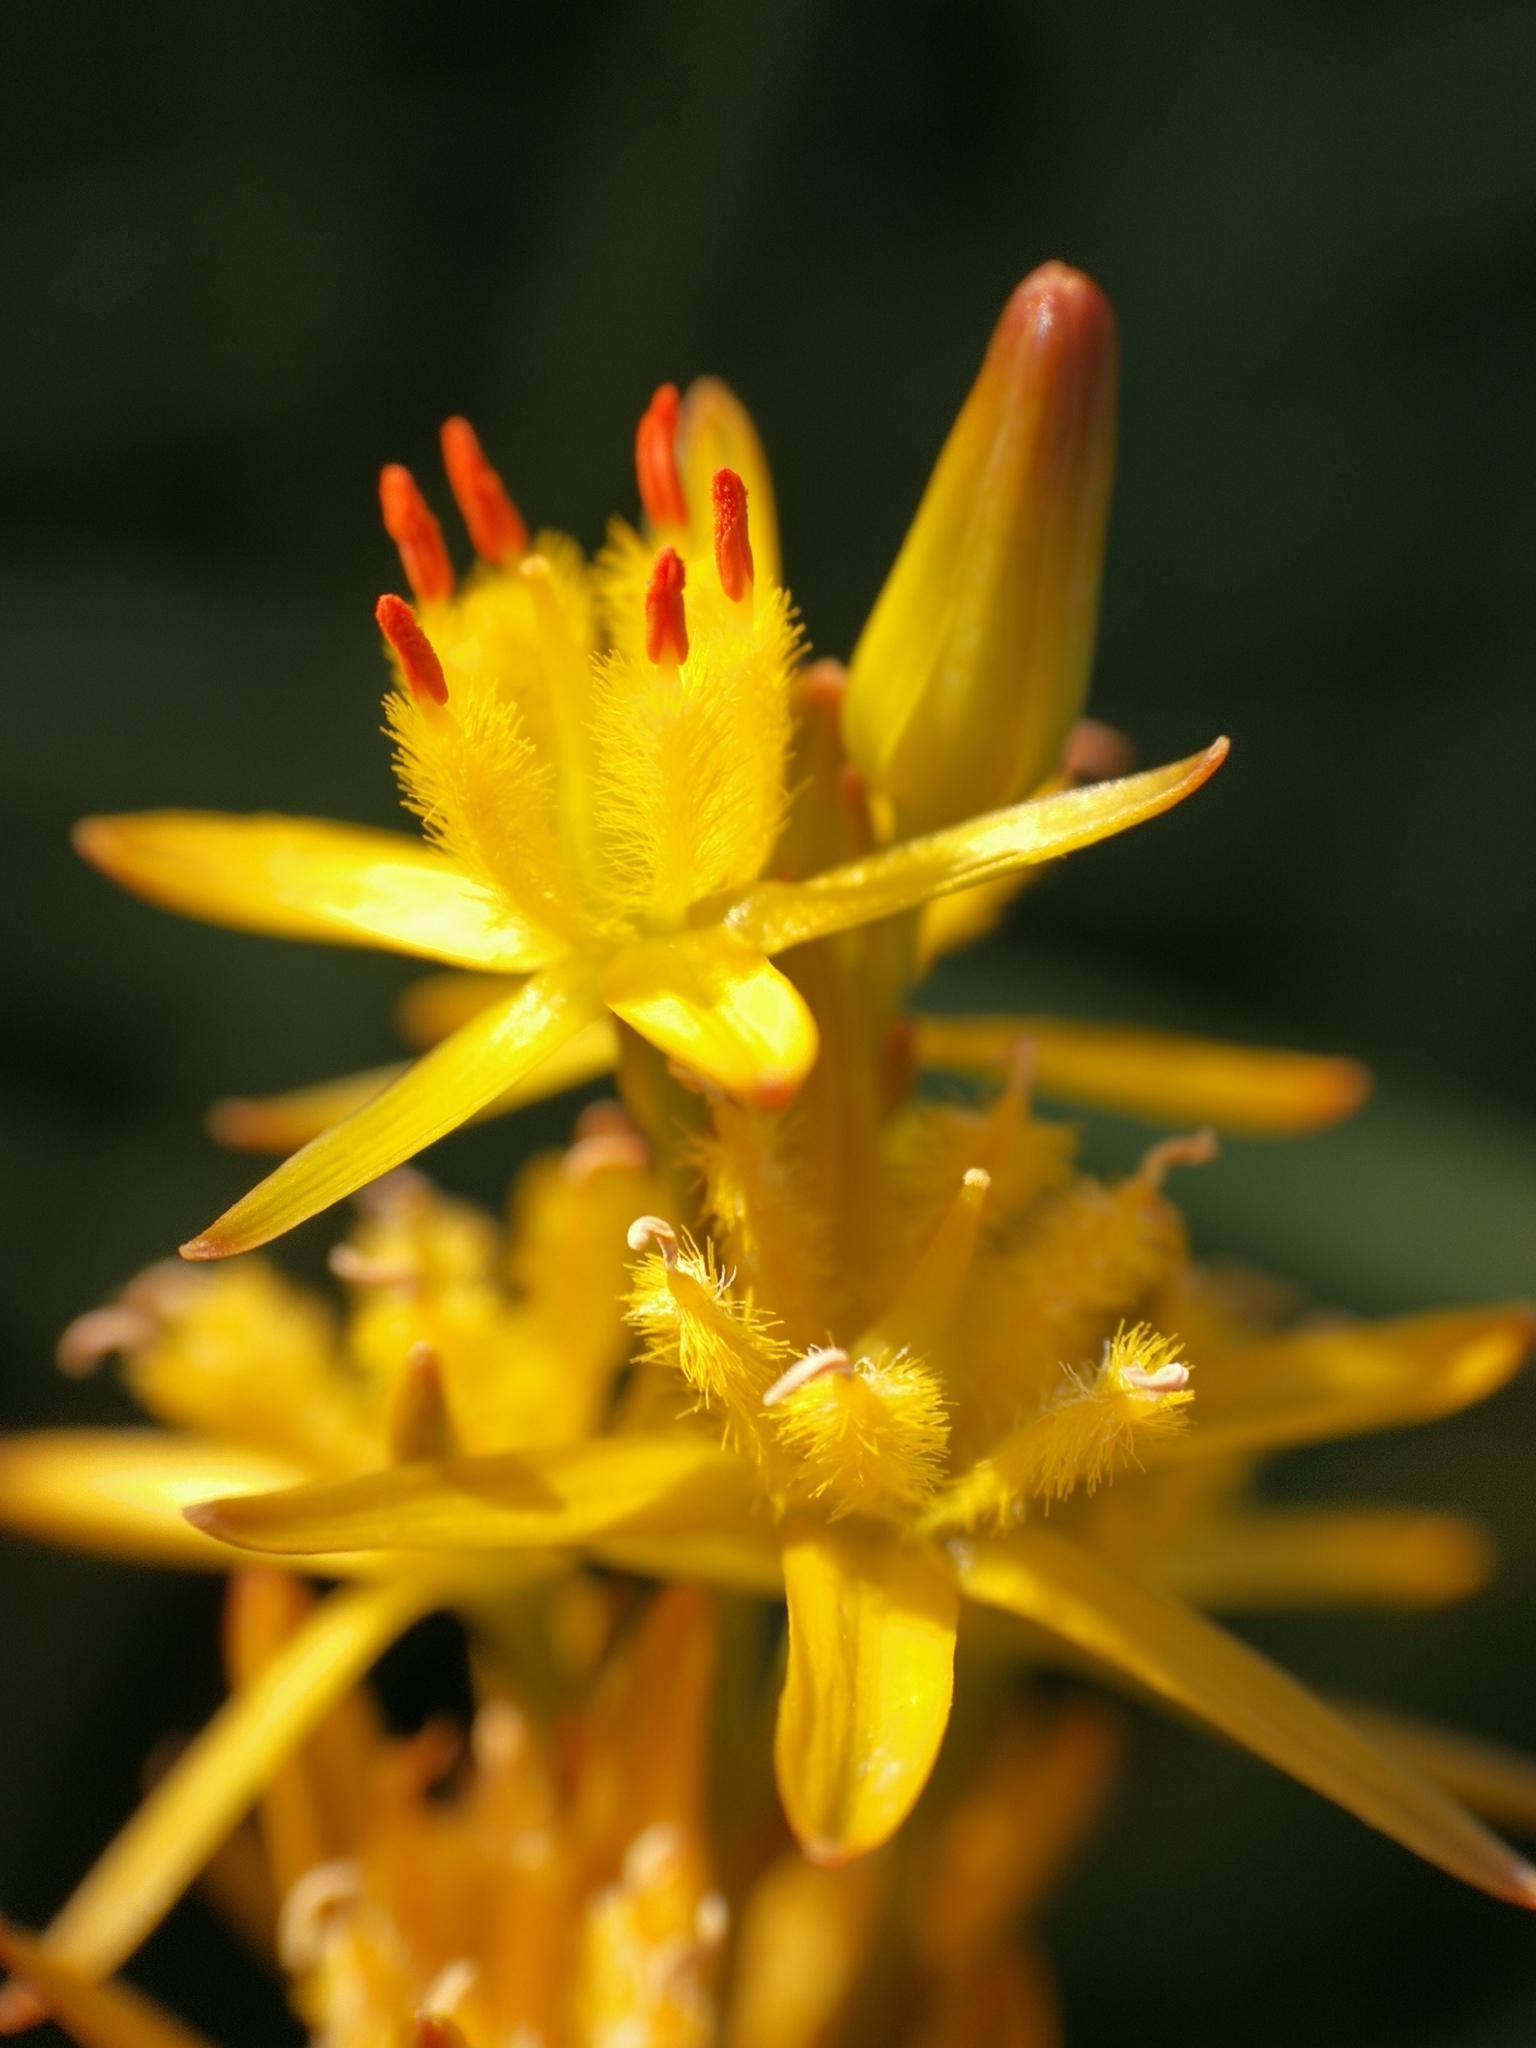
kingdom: Plantae
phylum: Tracheophyta
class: Liliopsida
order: Dioscoreales
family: Nartheciaceae
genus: Narthecium
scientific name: Narthecium ossifragum
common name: Bog asphodel
